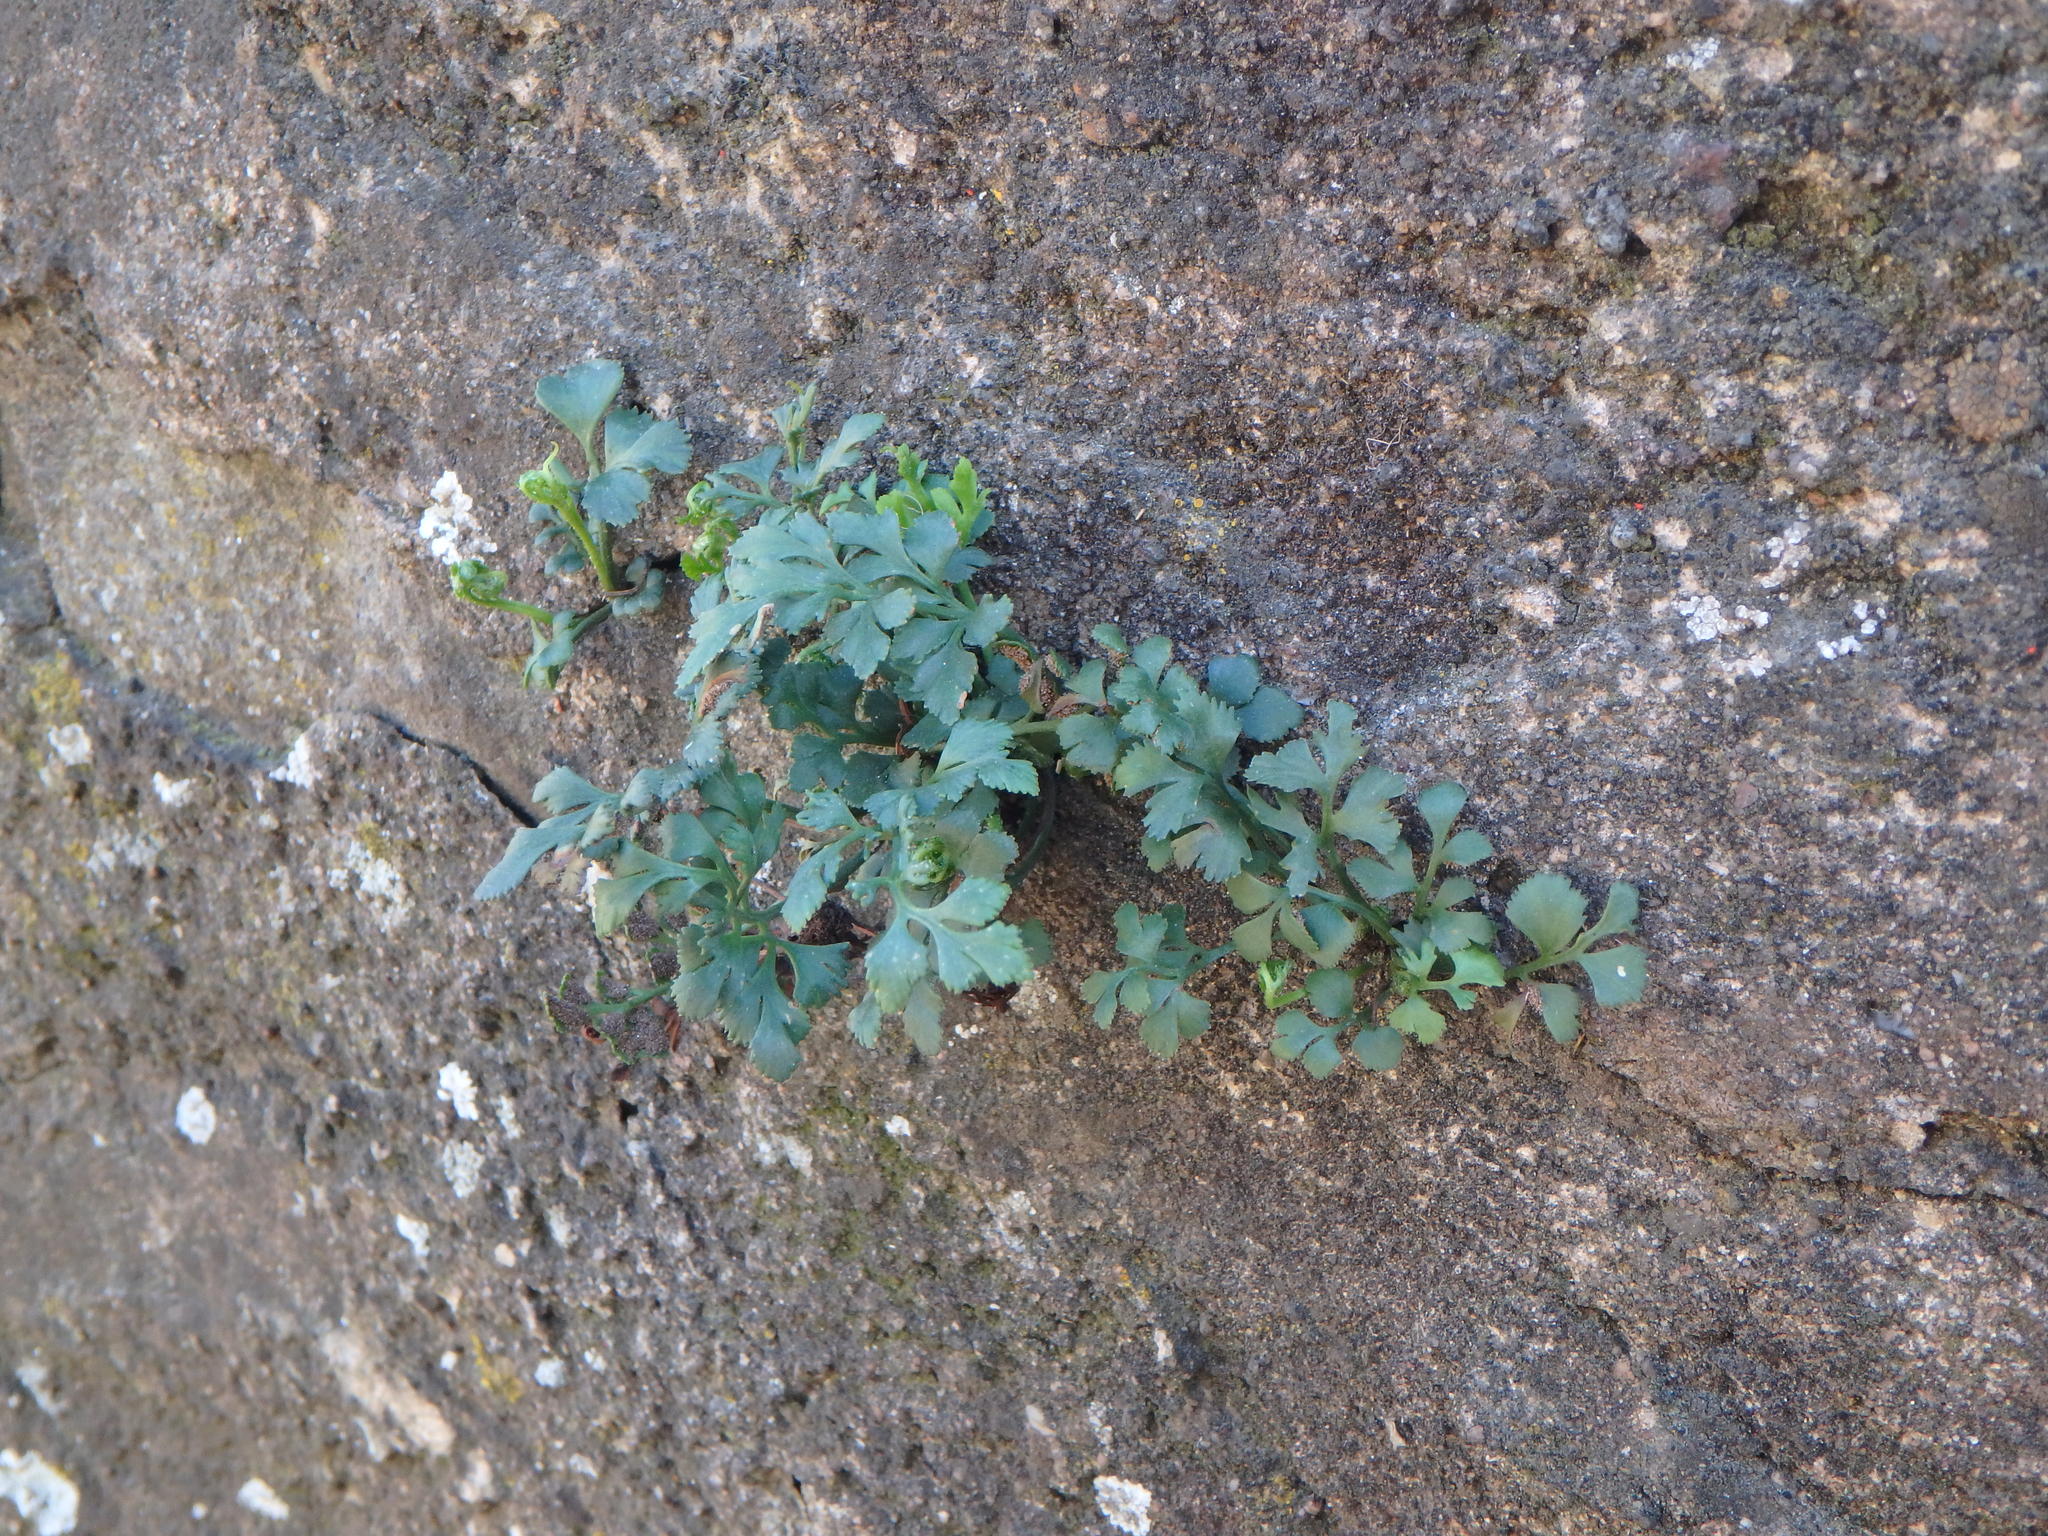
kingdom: Plantae
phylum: Tracheophyta
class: Polypodiopsida
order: Polypodiales
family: Aspleniaceae
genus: Asplenium
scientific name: Asplenium ruta-muraria
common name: Wall-rue
